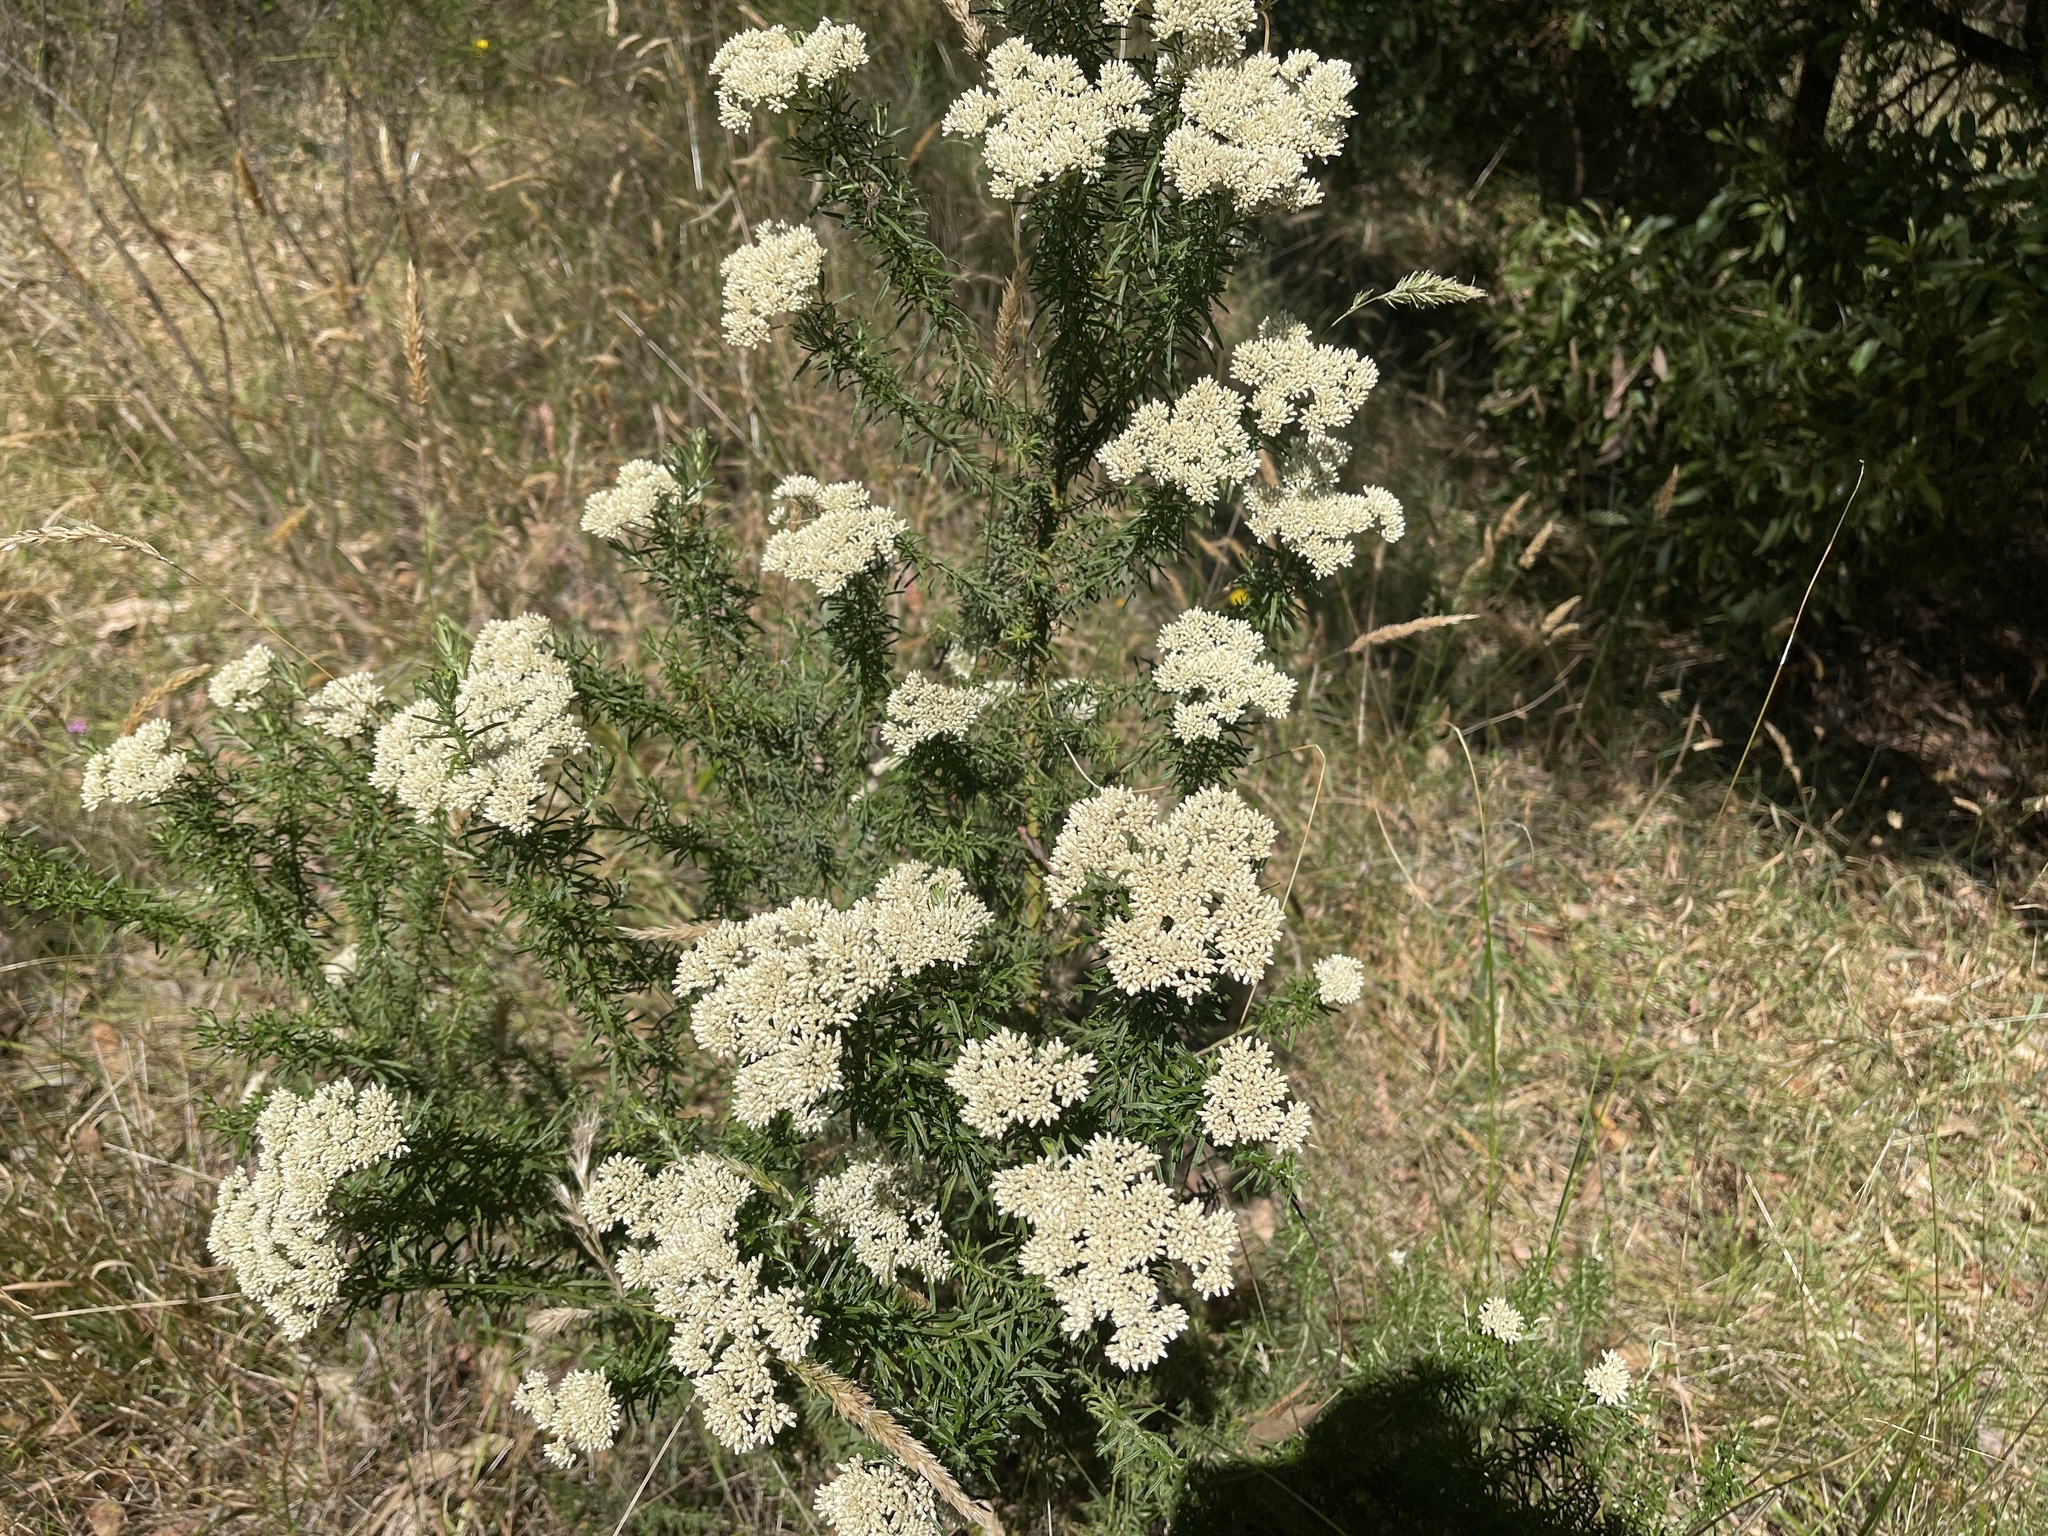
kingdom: Plantae
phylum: Tracheophyta
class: Magnoliopsida
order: Asterales
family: Asteraceae
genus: Cassinia
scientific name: Cassinia aculeata
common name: Australian tauhinu
